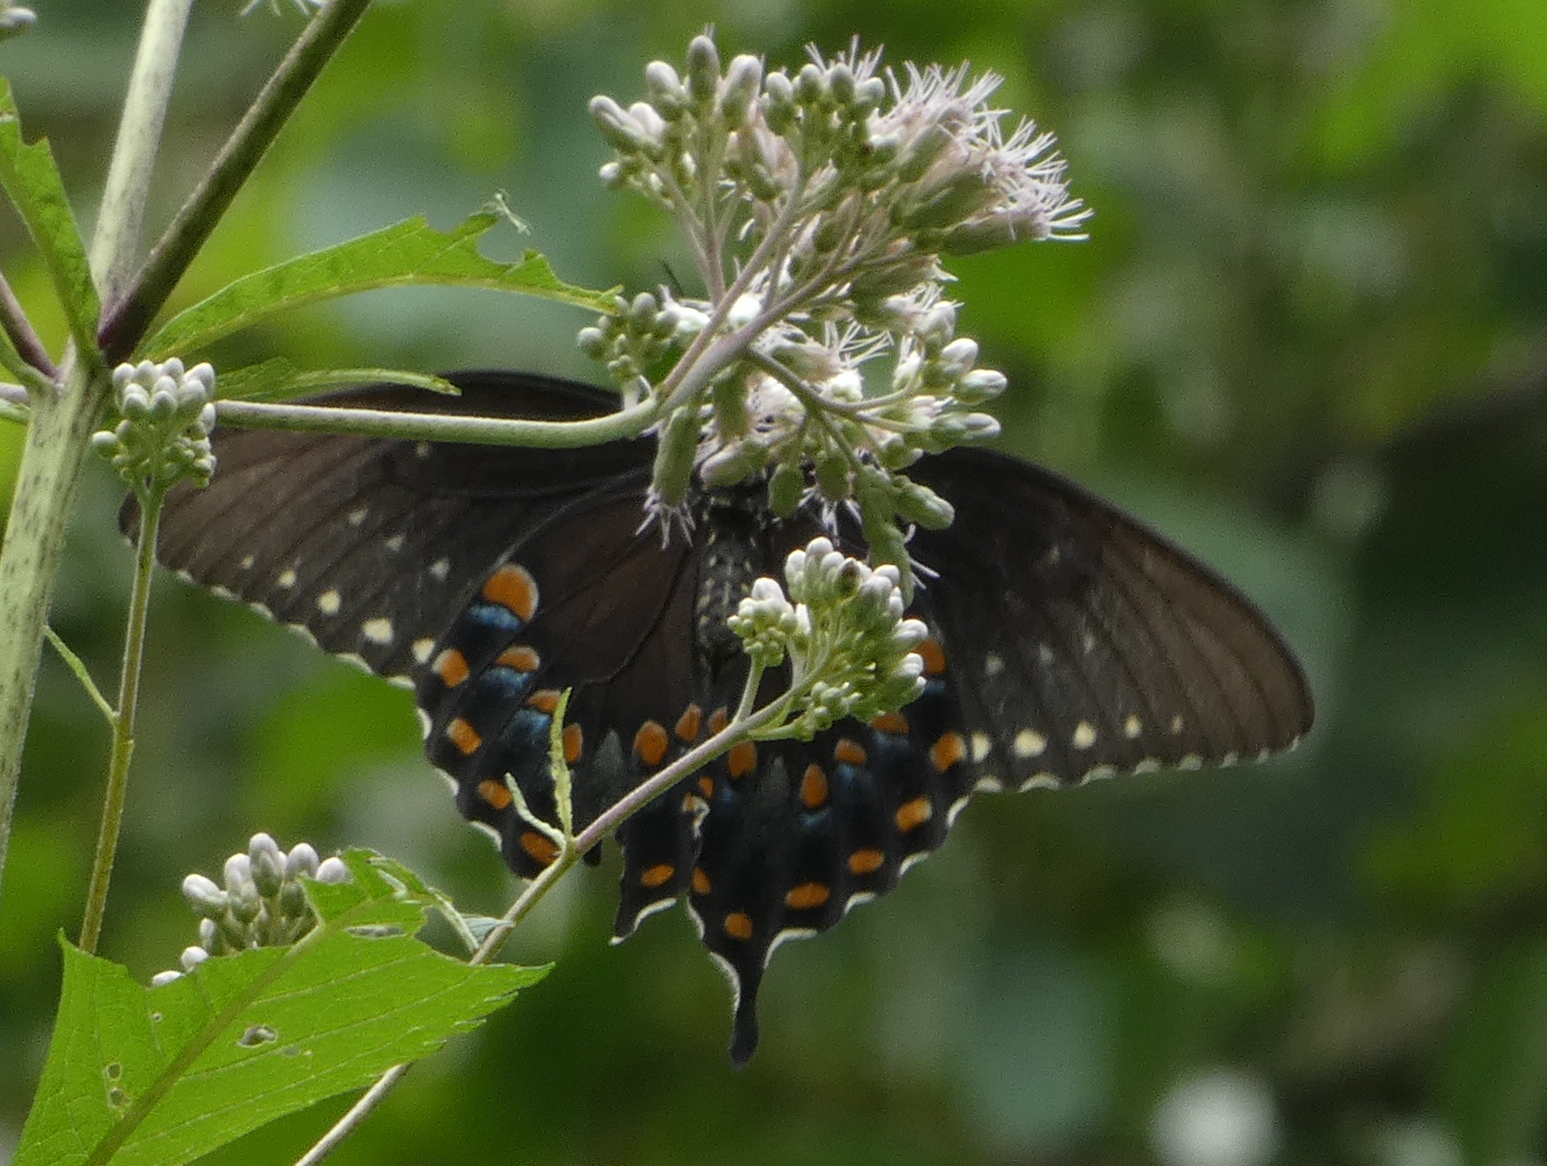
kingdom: Animalia
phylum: Arthropoda
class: Insecta
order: Lepidoptera
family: Papilionidae
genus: Papilio
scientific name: Papilio troilus
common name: Spicebush swallowtail
